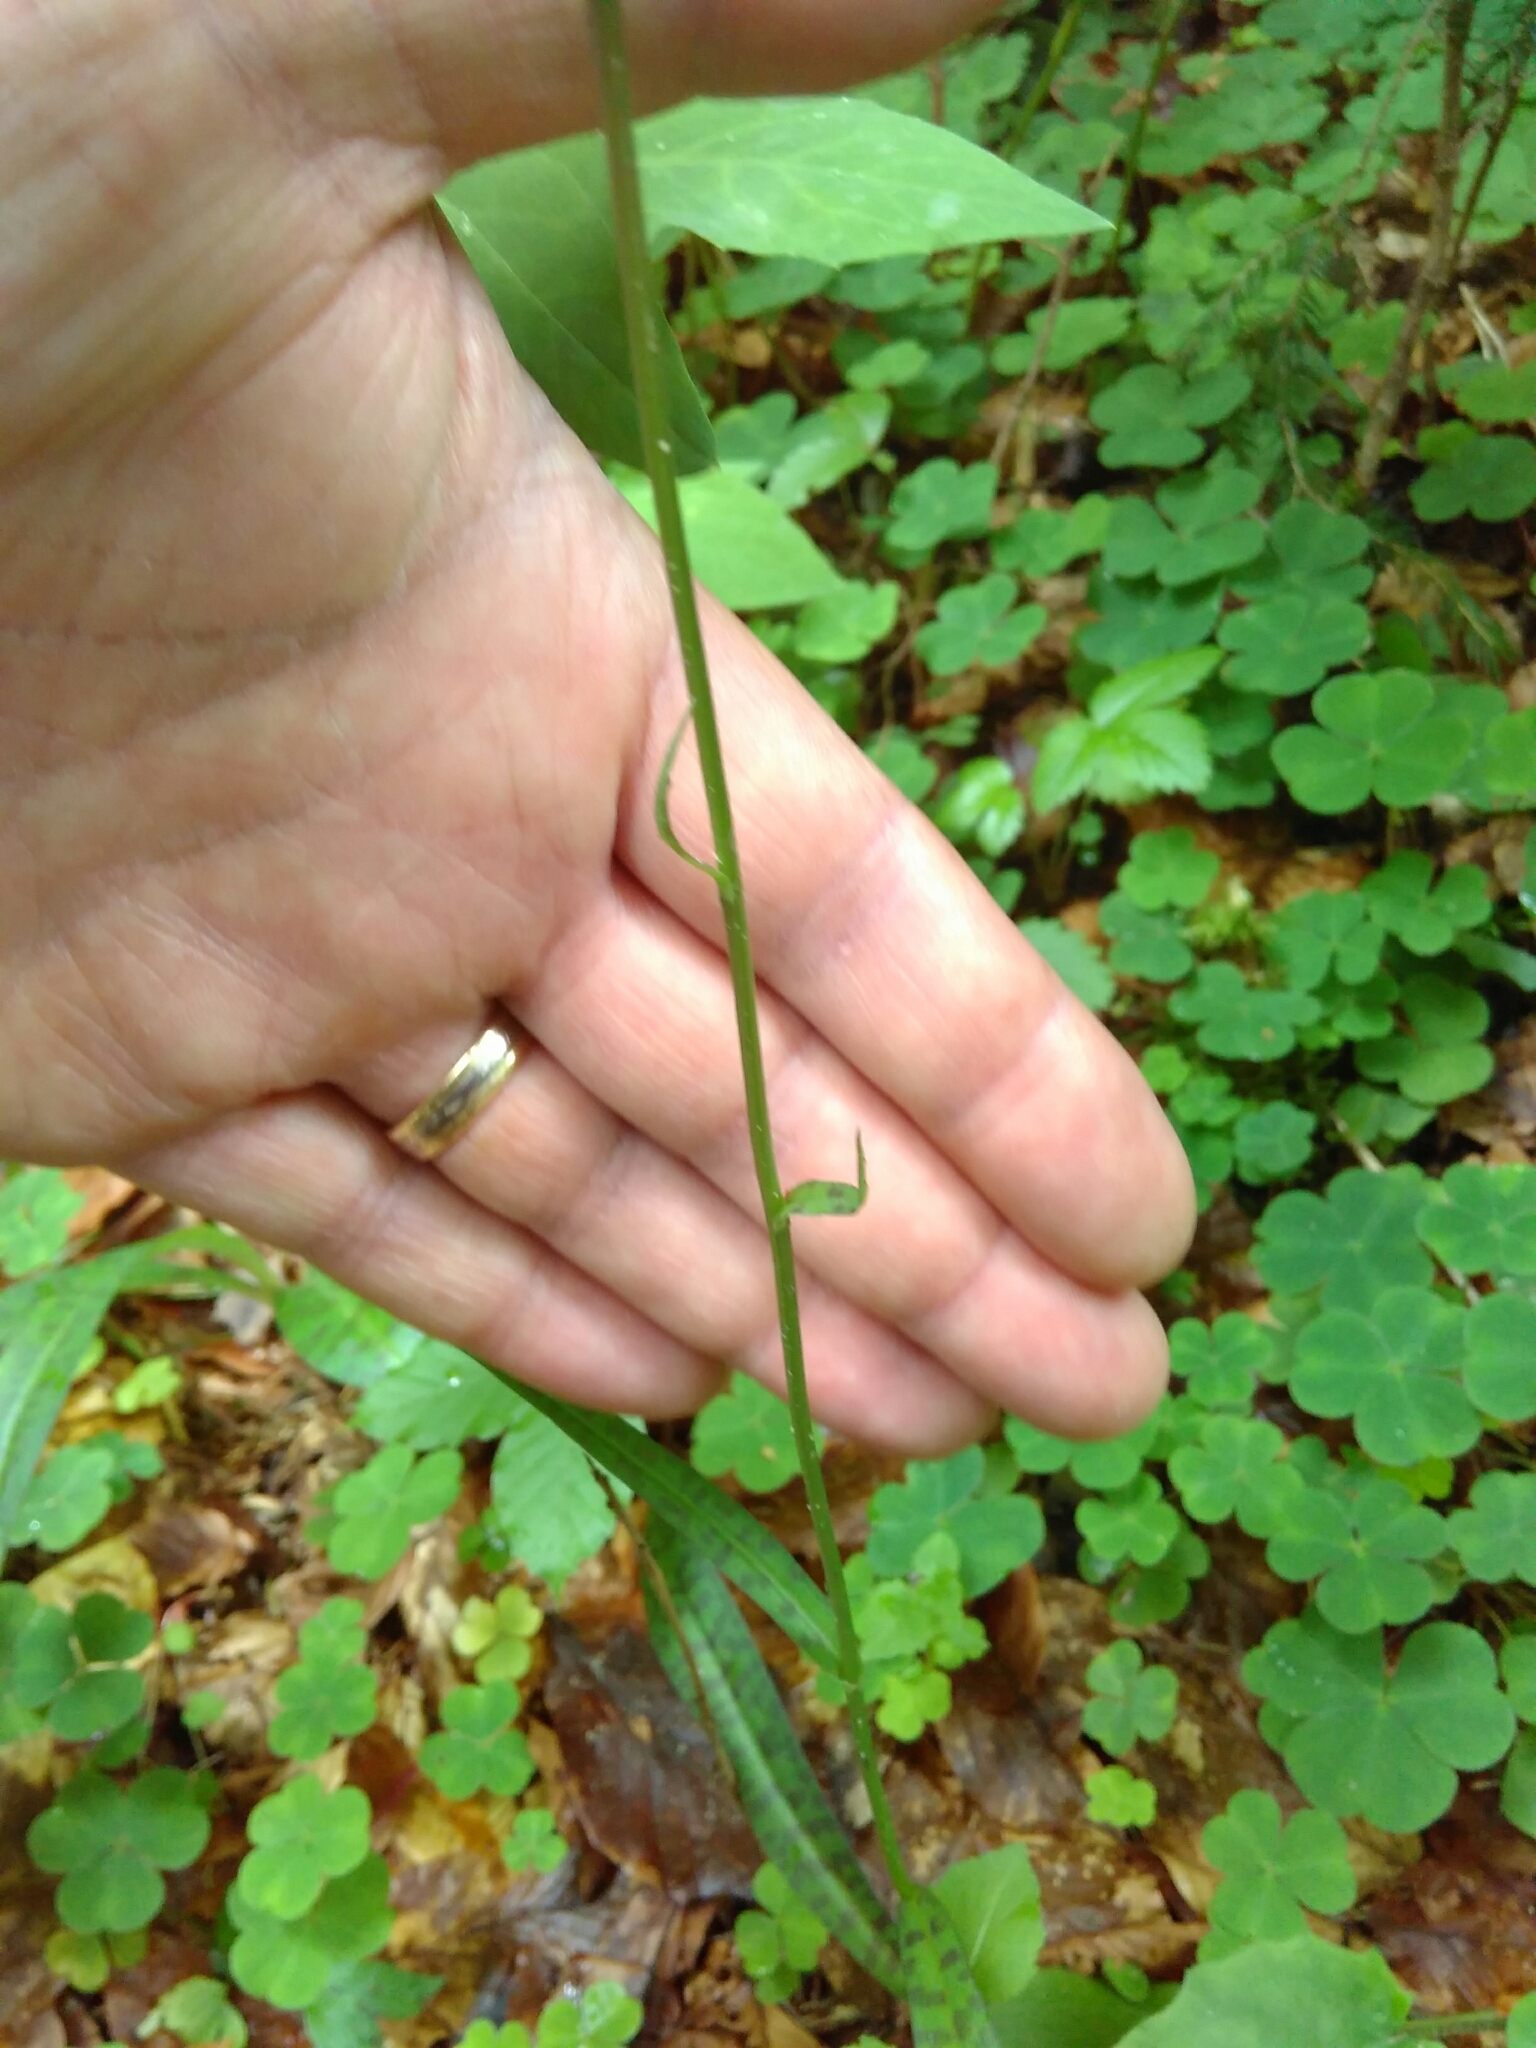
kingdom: Plantae
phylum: Tracheophyta
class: Liliopsida
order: Asparagales
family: Orchidaceae
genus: Dactylorhiza
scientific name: Dactylorhiza maculata
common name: Heath spotted-orchid
